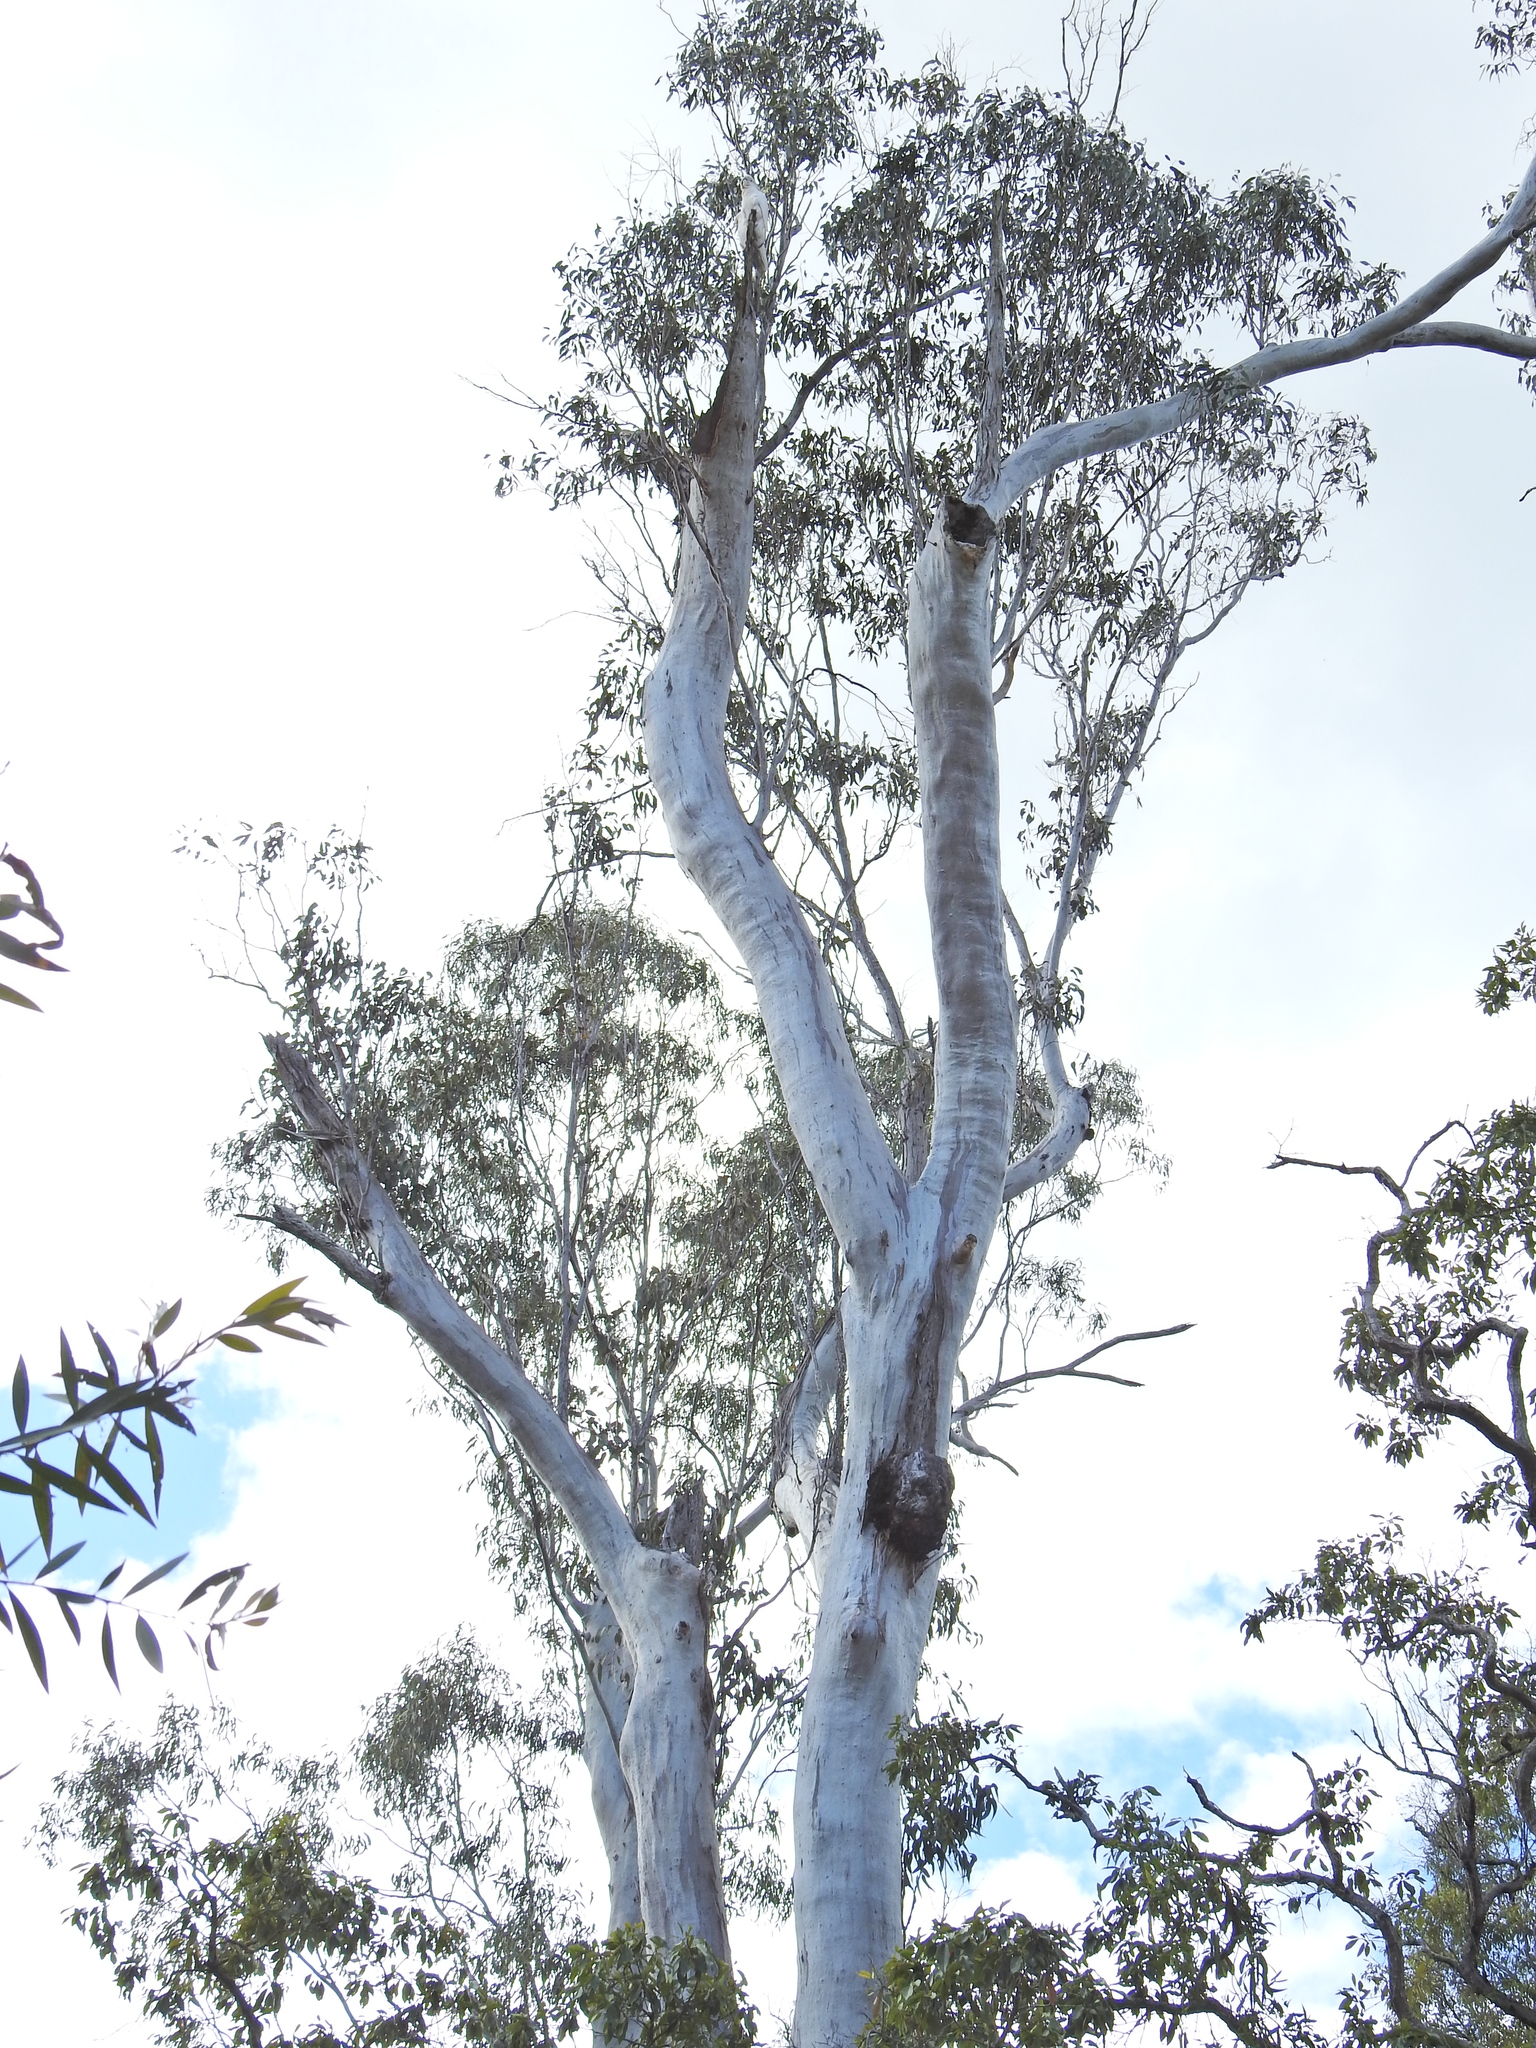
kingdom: Plantae
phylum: Tracheophyta
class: Magnoliopsida
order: Myrtales
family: Myrtaceae
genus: Eucalyptus
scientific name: Eucalyptus tereticornis
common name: Forest redgum
